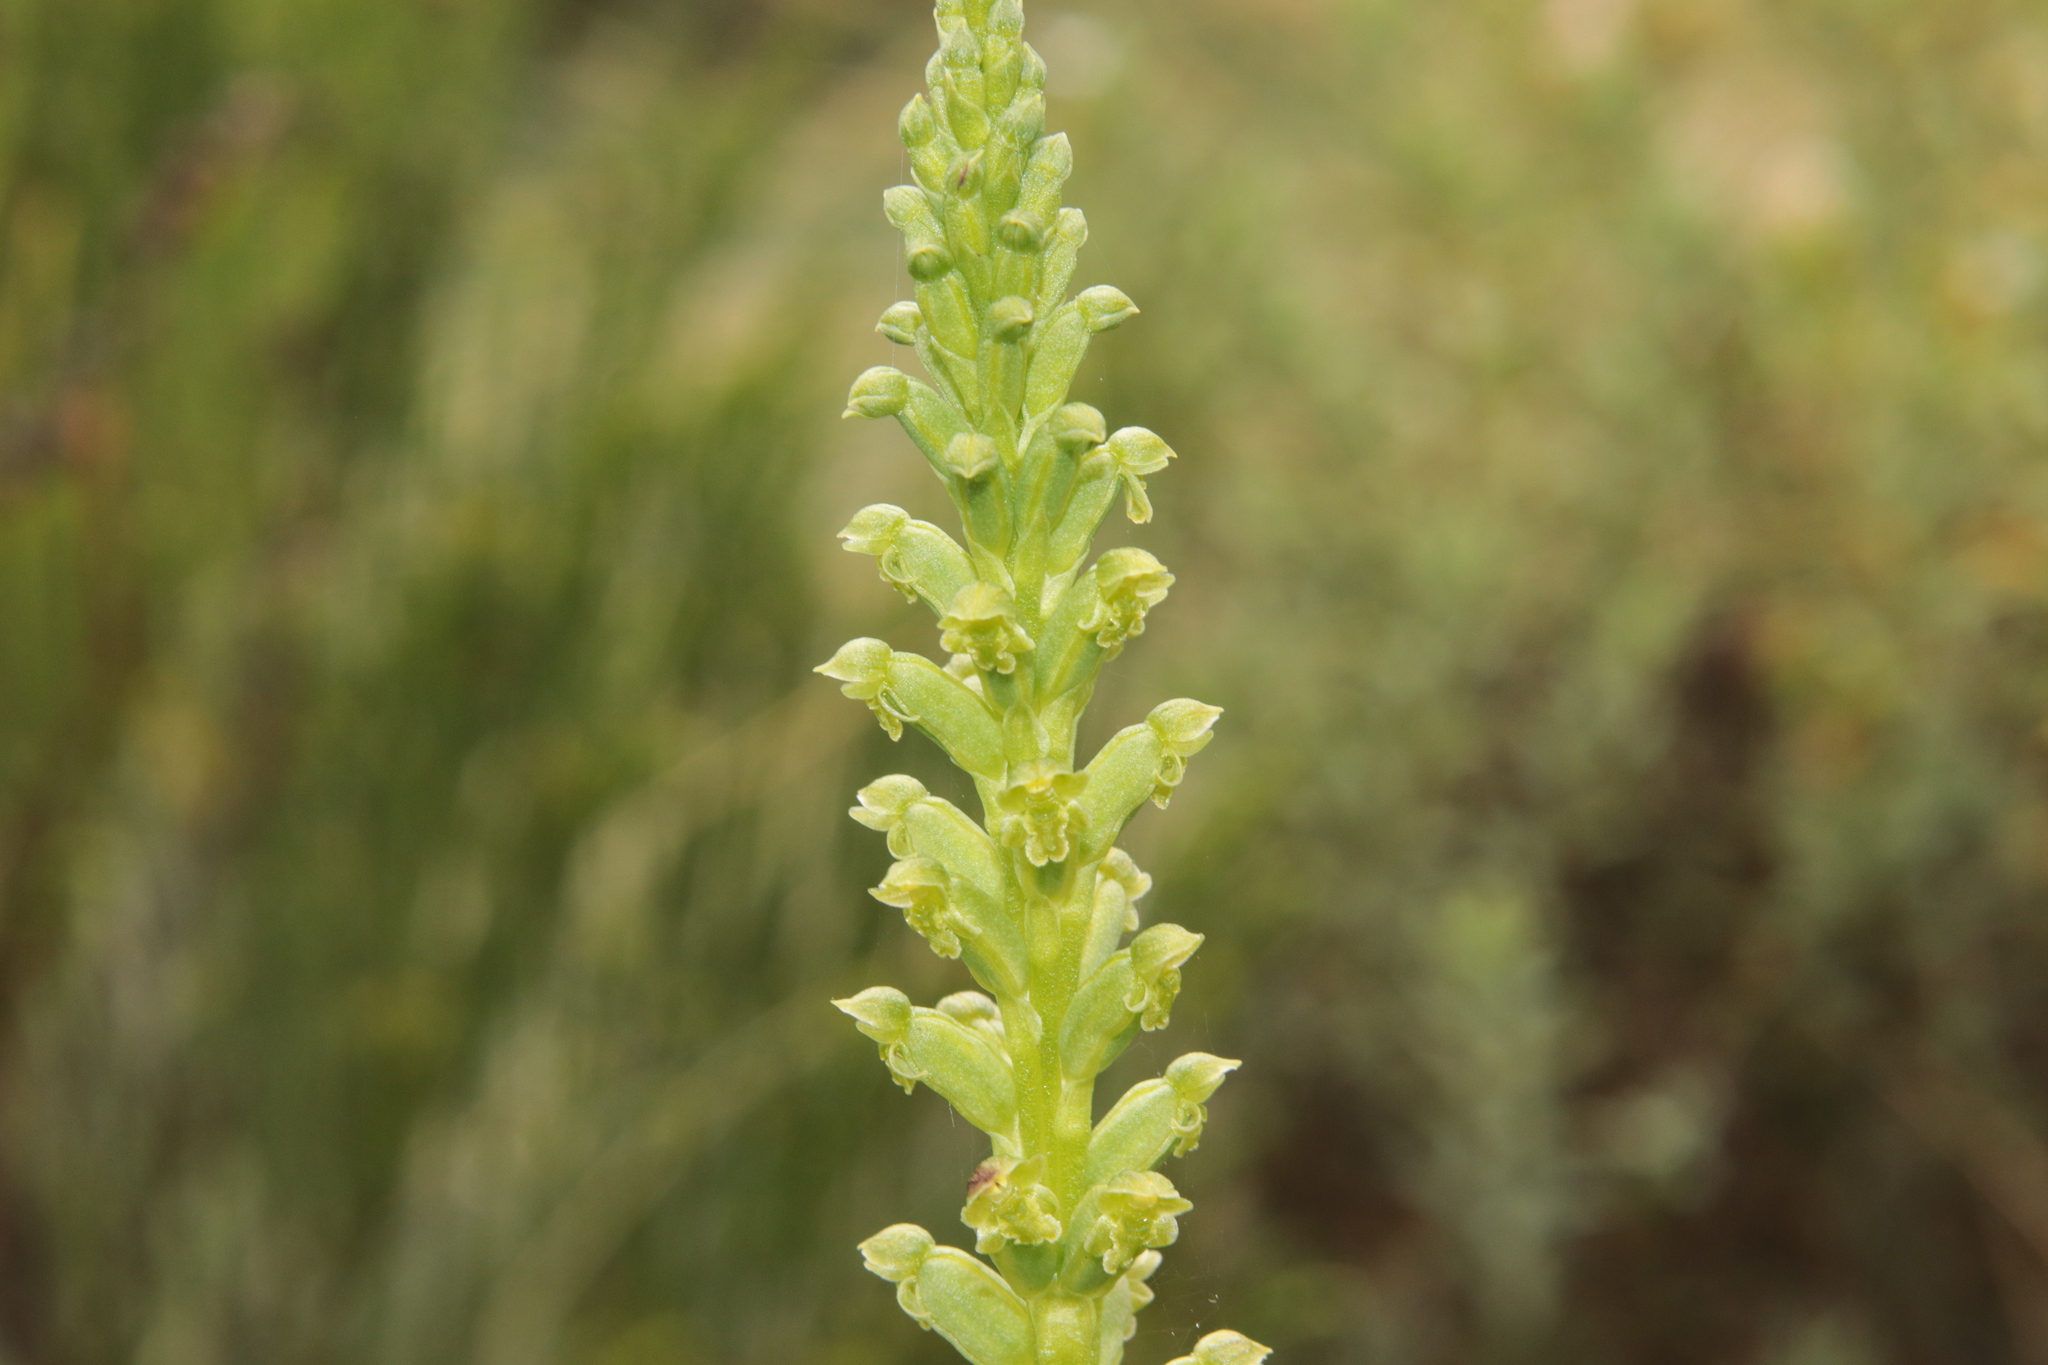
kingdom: Plantae
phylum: Tracheophyta
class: Liliopsida
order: Asparagales
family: Orchidaceae
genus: Microtis
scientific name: Microtis unifolia
